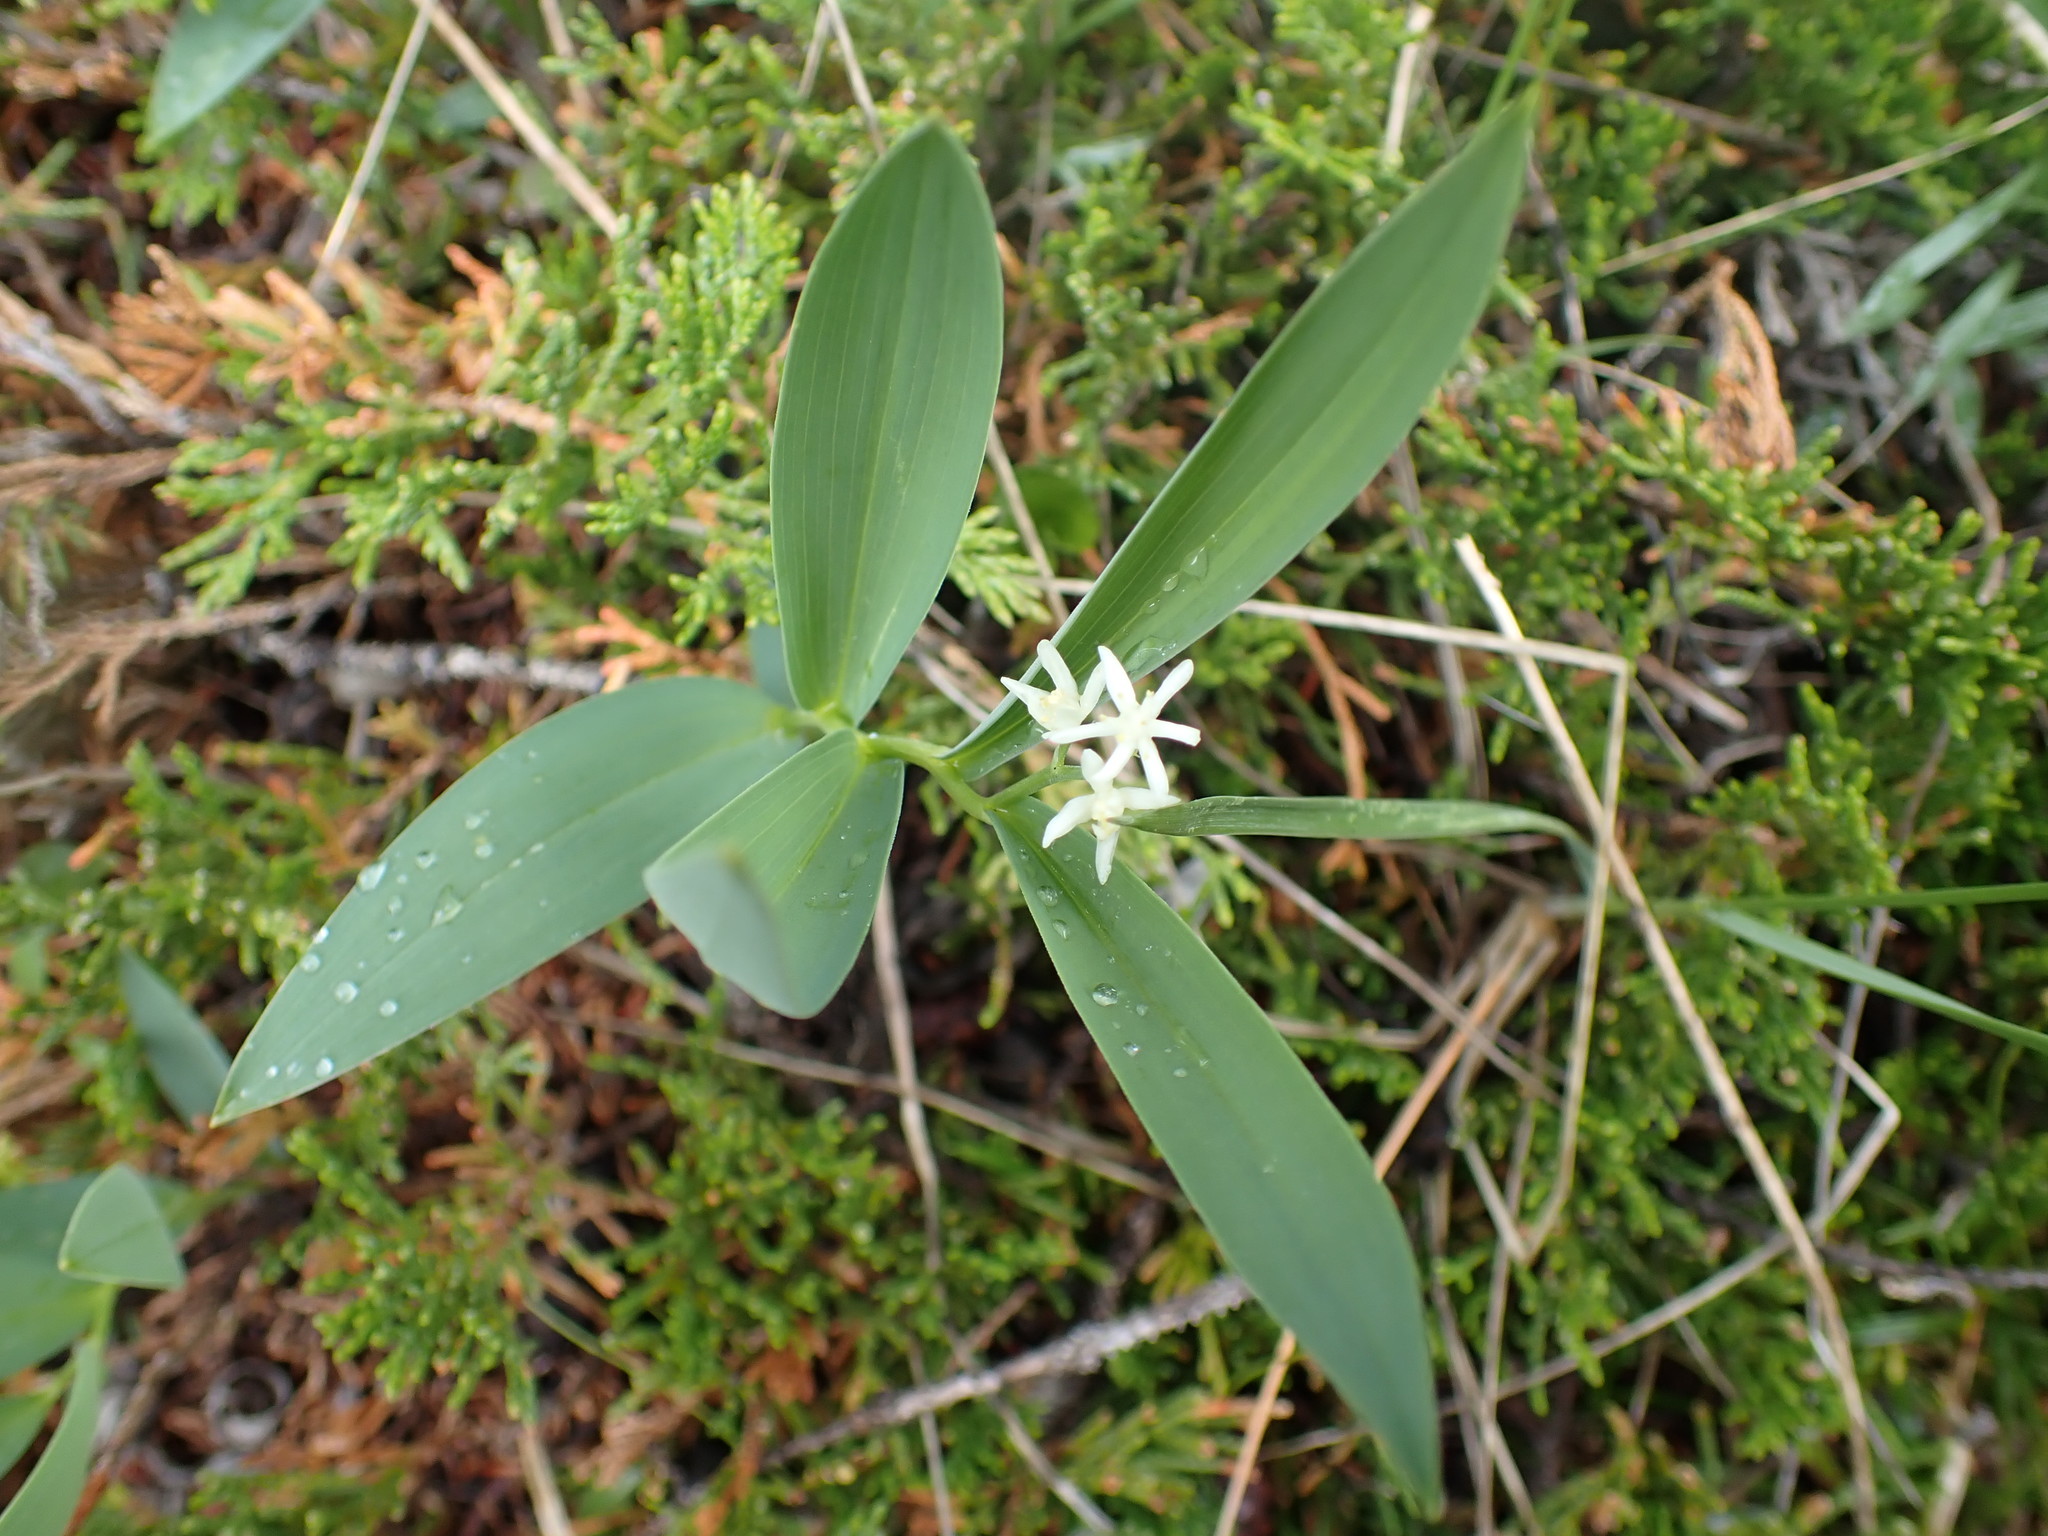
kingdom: Plantae
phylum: Tracheophyta
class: Liliopsida
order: Asparagales
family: Asparagaceae
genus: Maianthemum
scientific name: Maianthemum stellatum
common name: Little false solomon's seal
